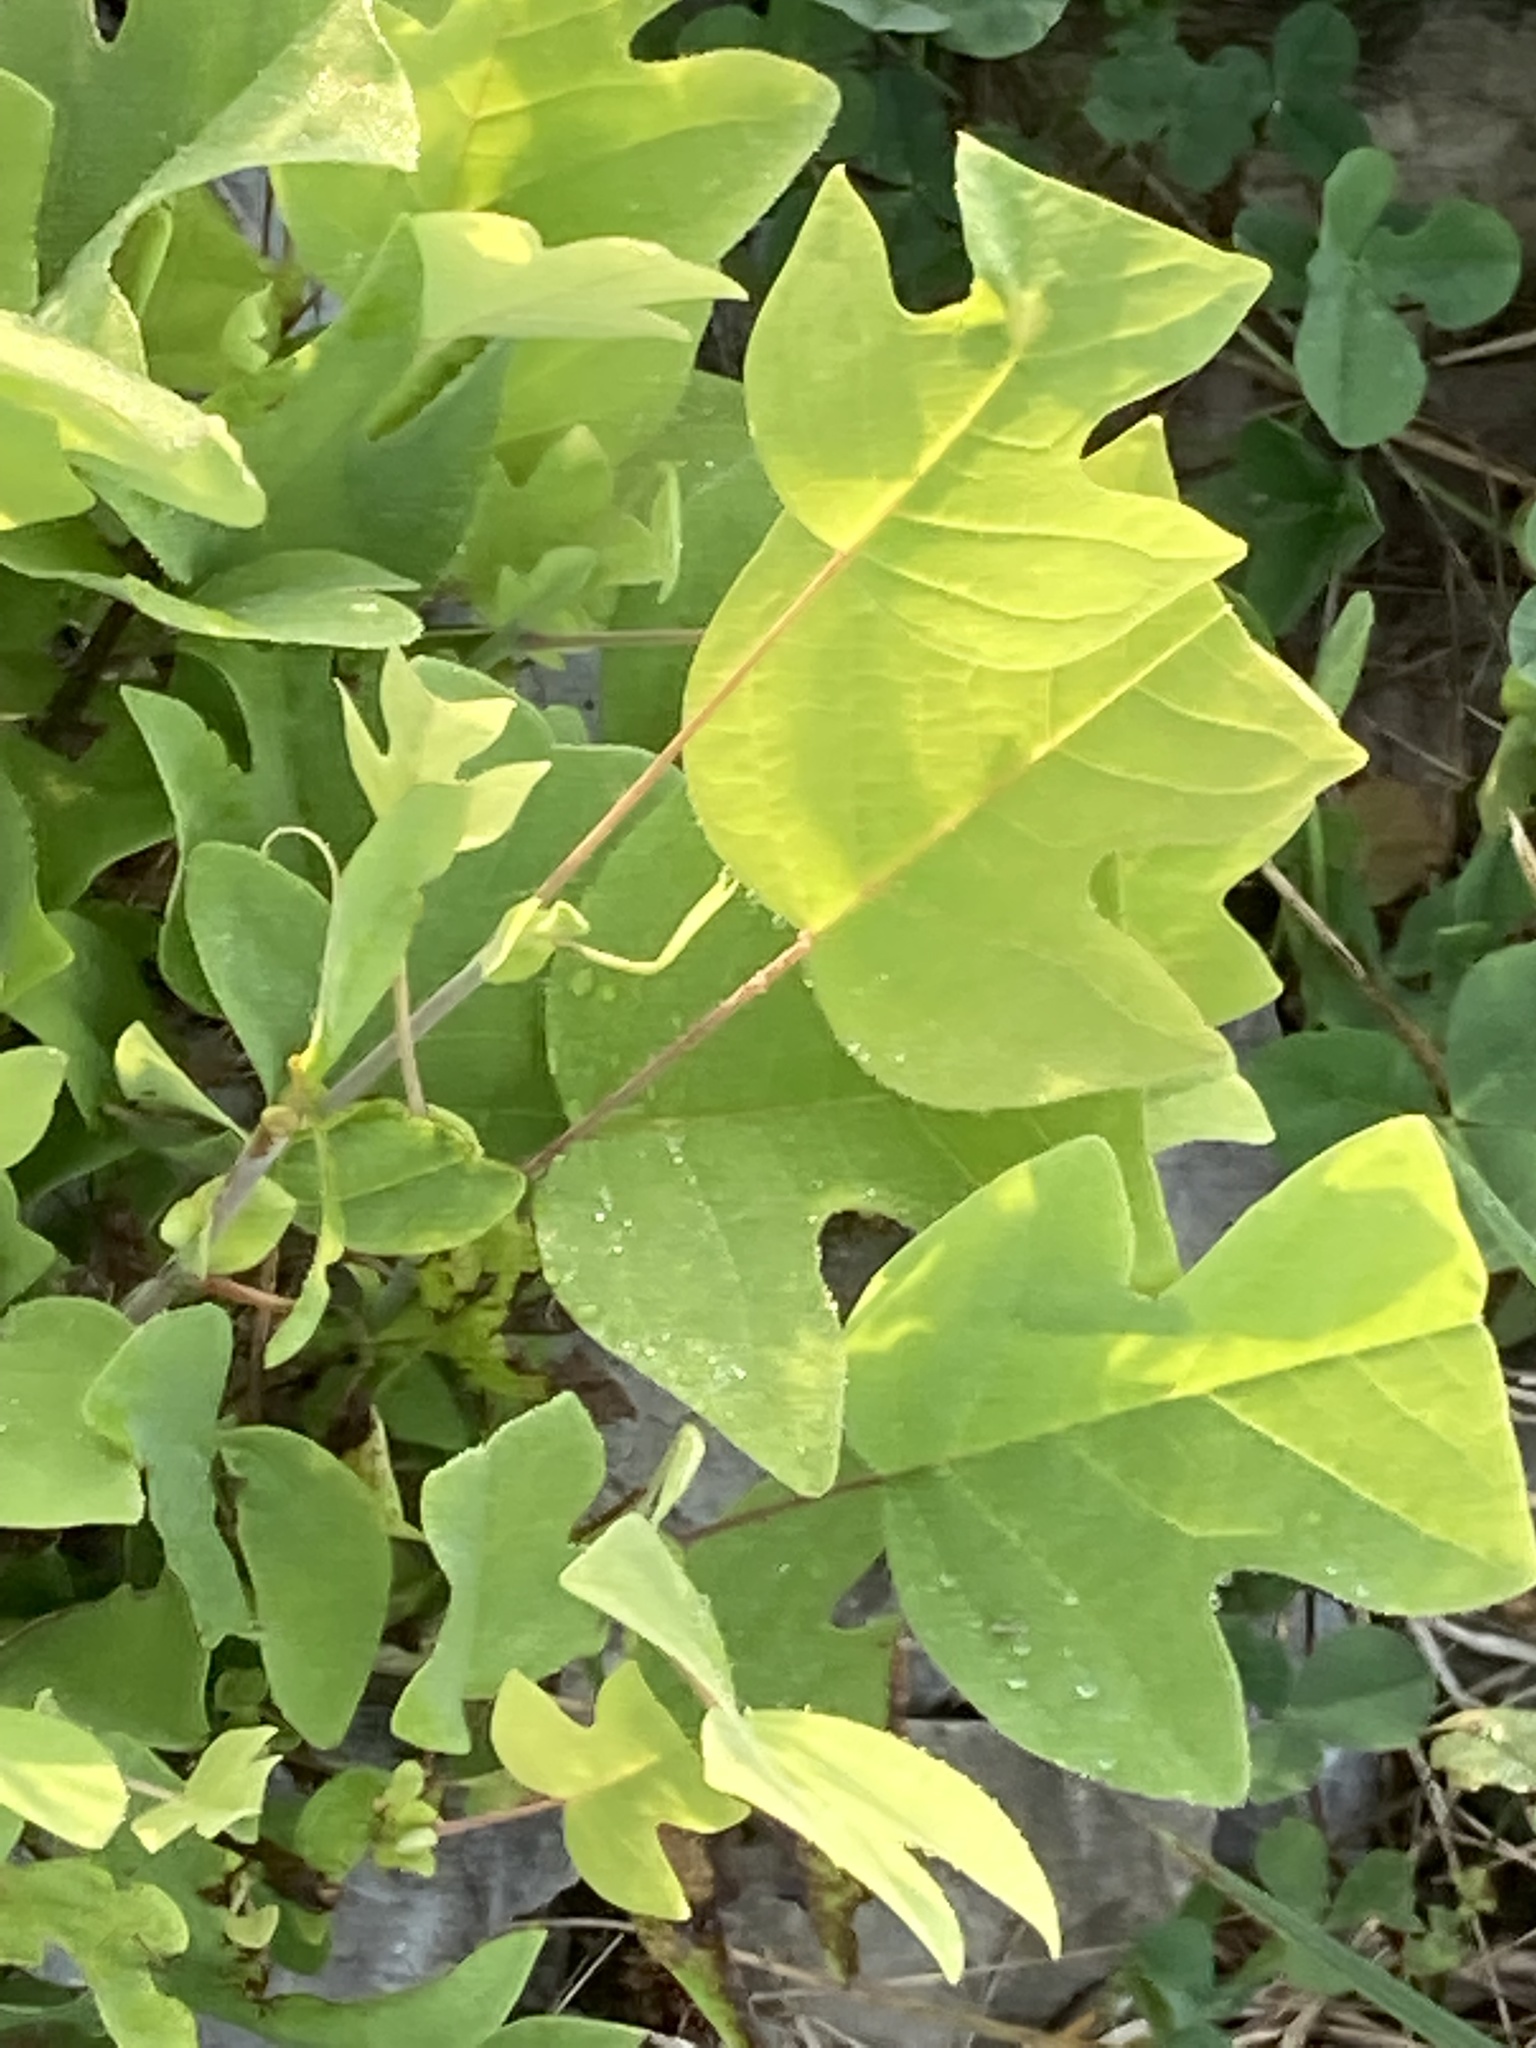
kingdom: Plantae
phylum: Tracheophyta
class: Magnoliopsida
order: Magnoliales
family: Magnoliaceae
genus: Liriodendron
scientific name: Liriodendron tulipifera
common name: Tulip tree
